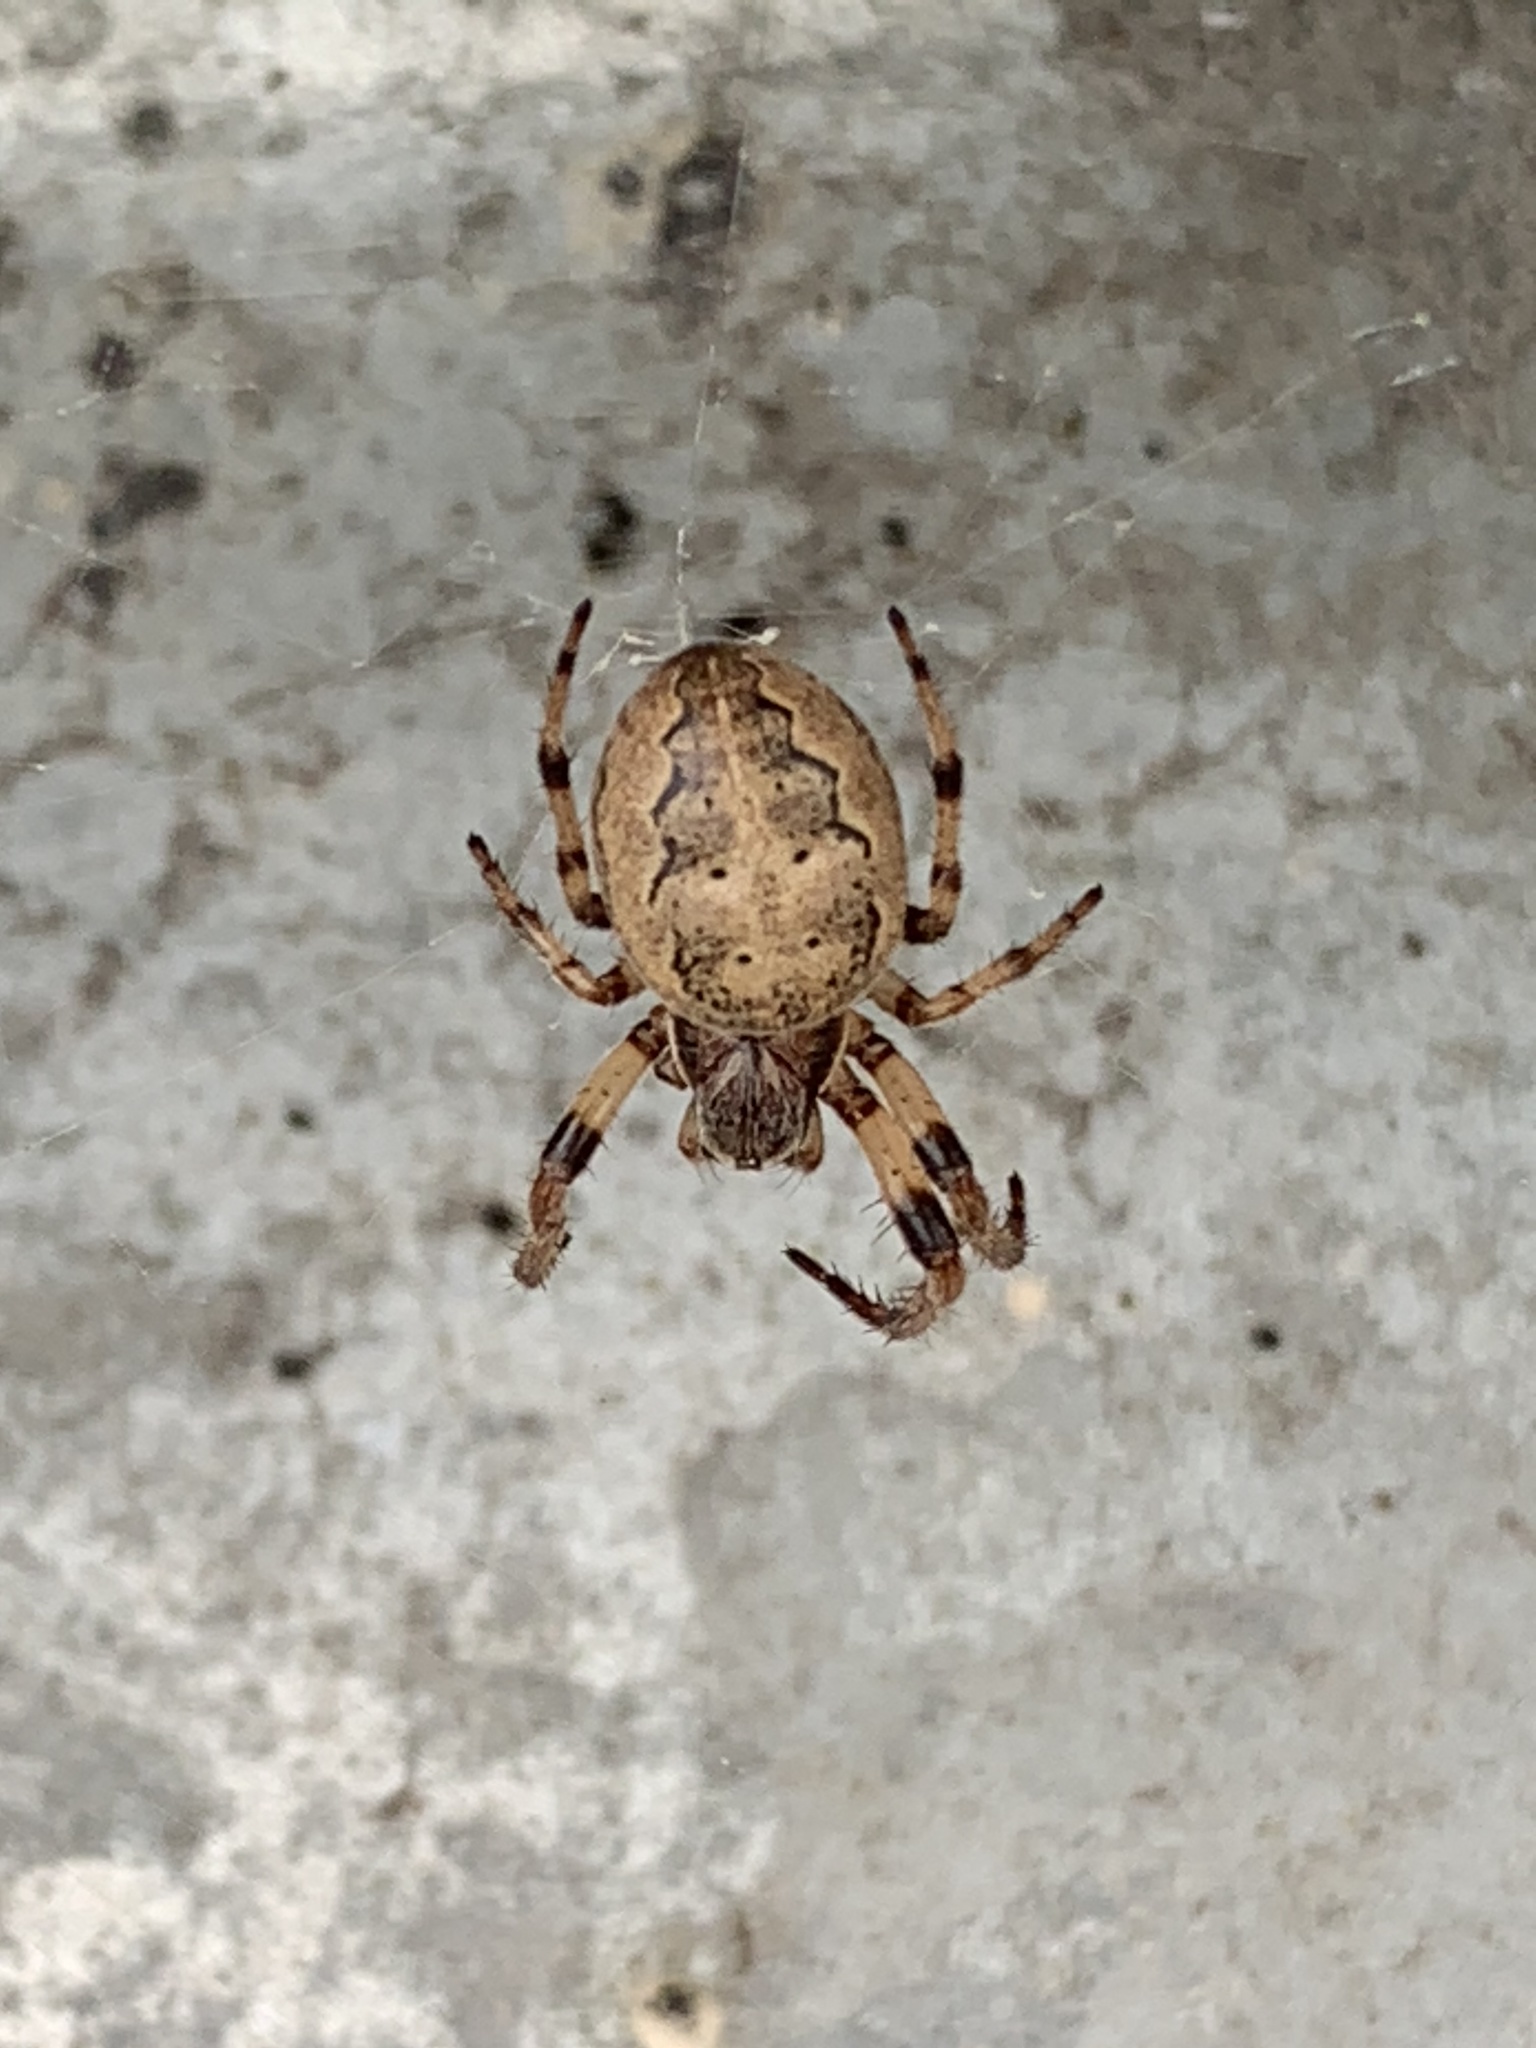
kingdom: Animalia
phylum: Arthropoda
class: Arachnida
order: Araneae
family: Araneidae
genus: Larinioides
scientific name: Larinioides cornutus
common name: Furrow orbweaver
